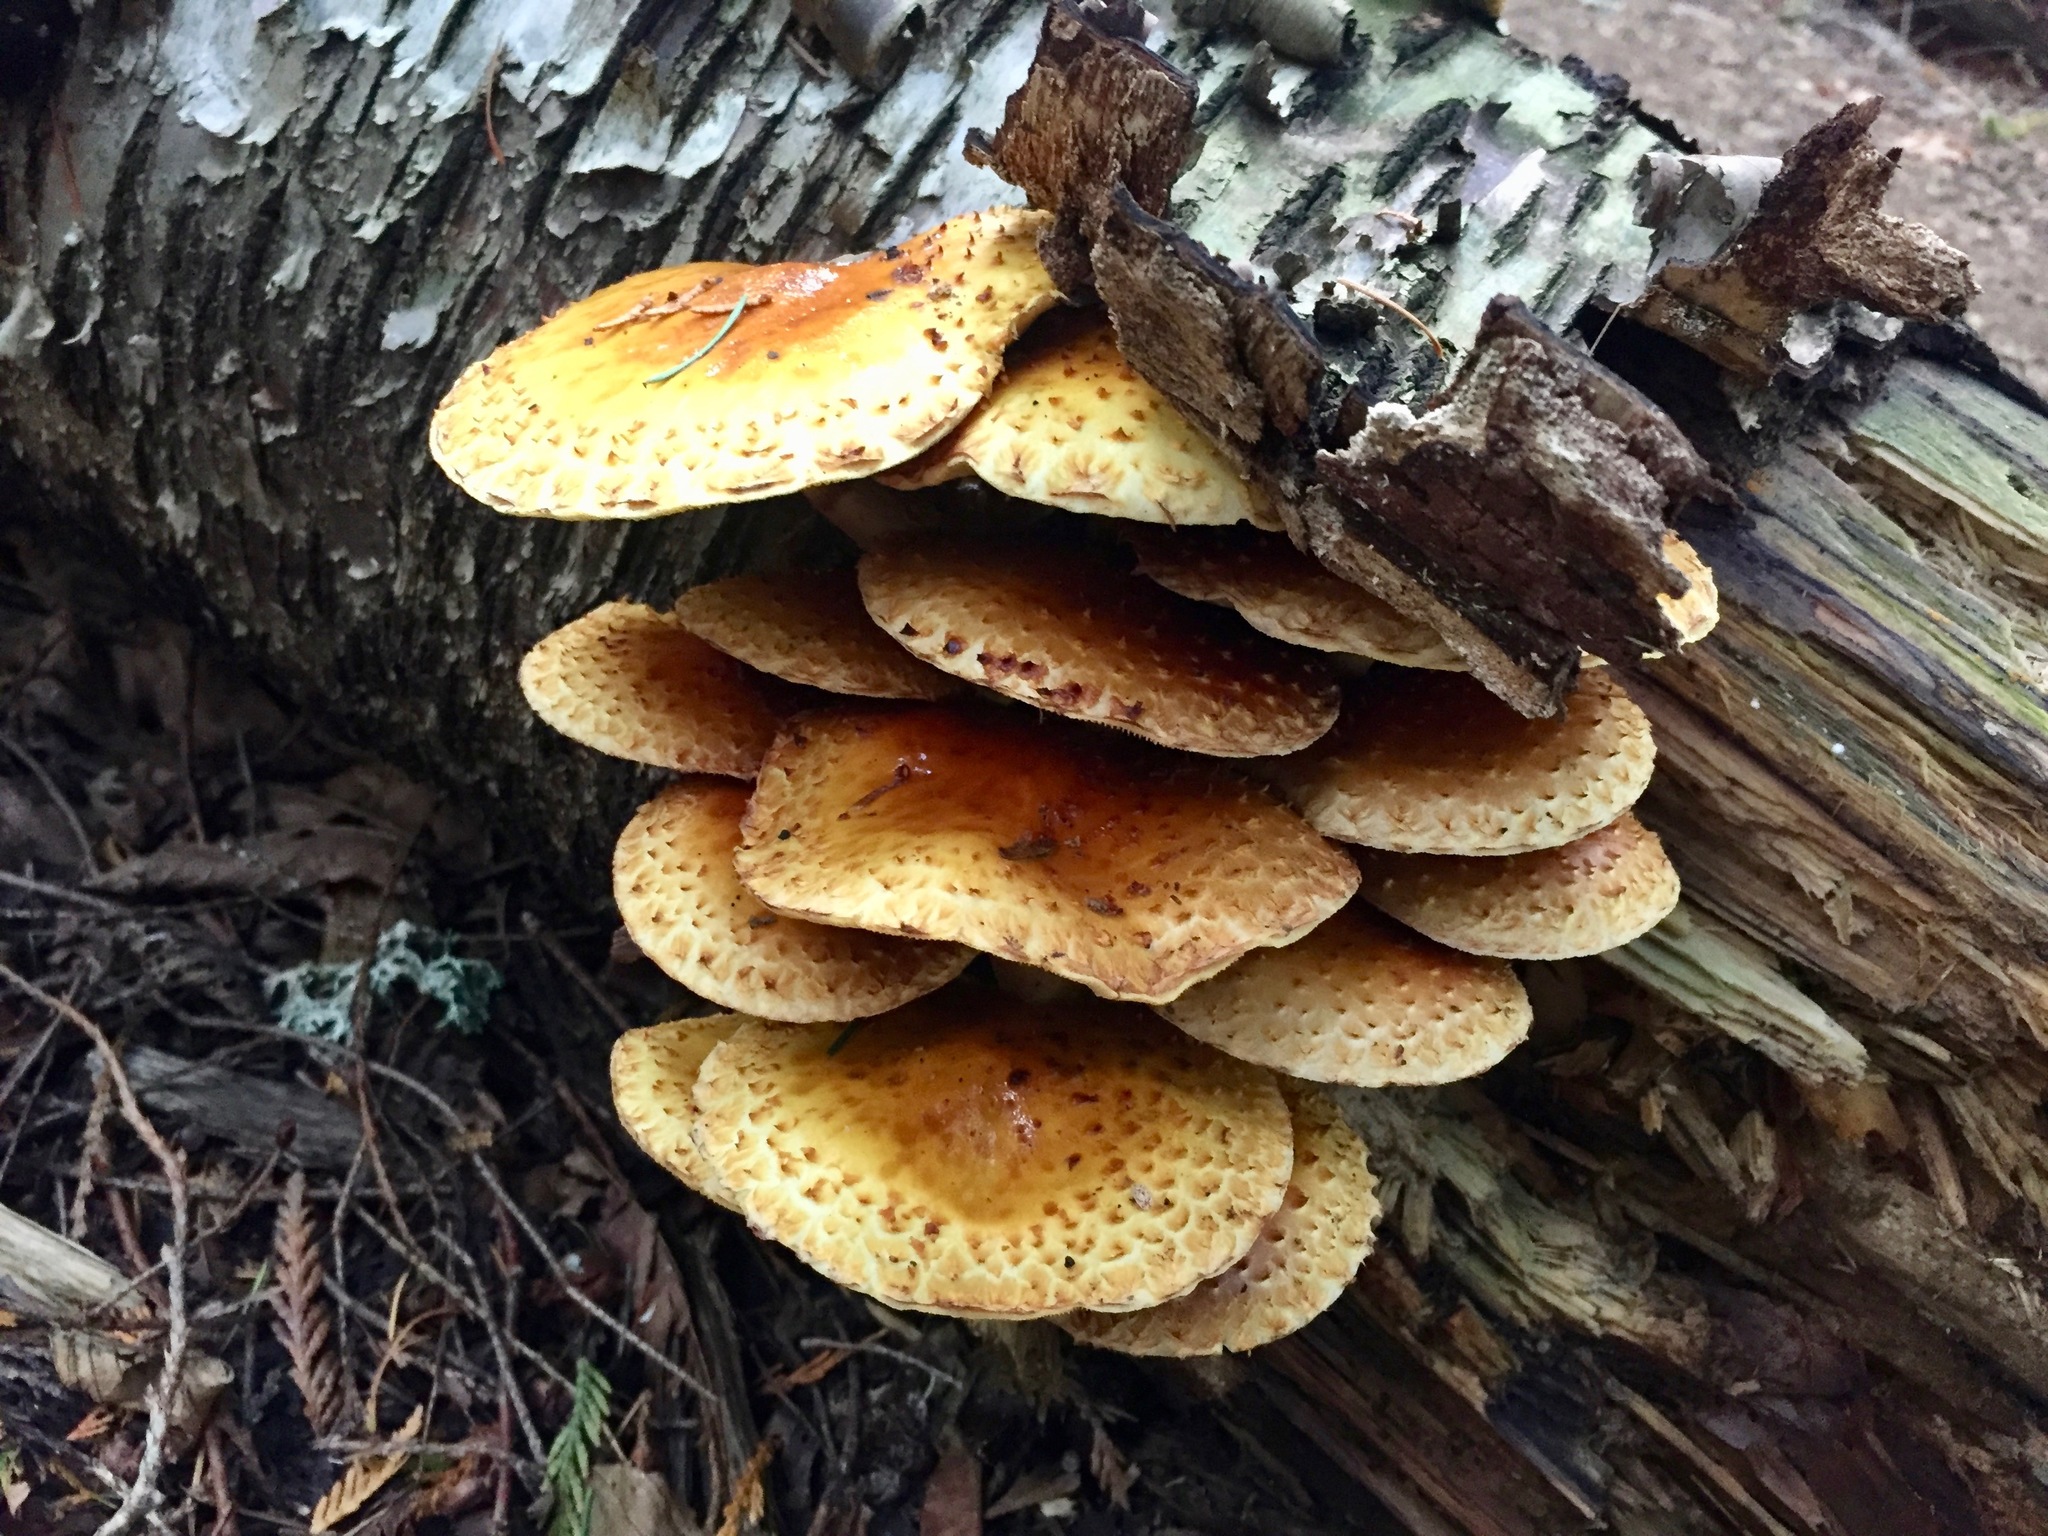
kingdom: Fungi
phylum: Basidiomycota
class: Agaricomycetes
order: Agaricales
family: Strophariaceae
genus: Pholiota
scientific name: Pholiota aurivella
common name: Golden scalycap
